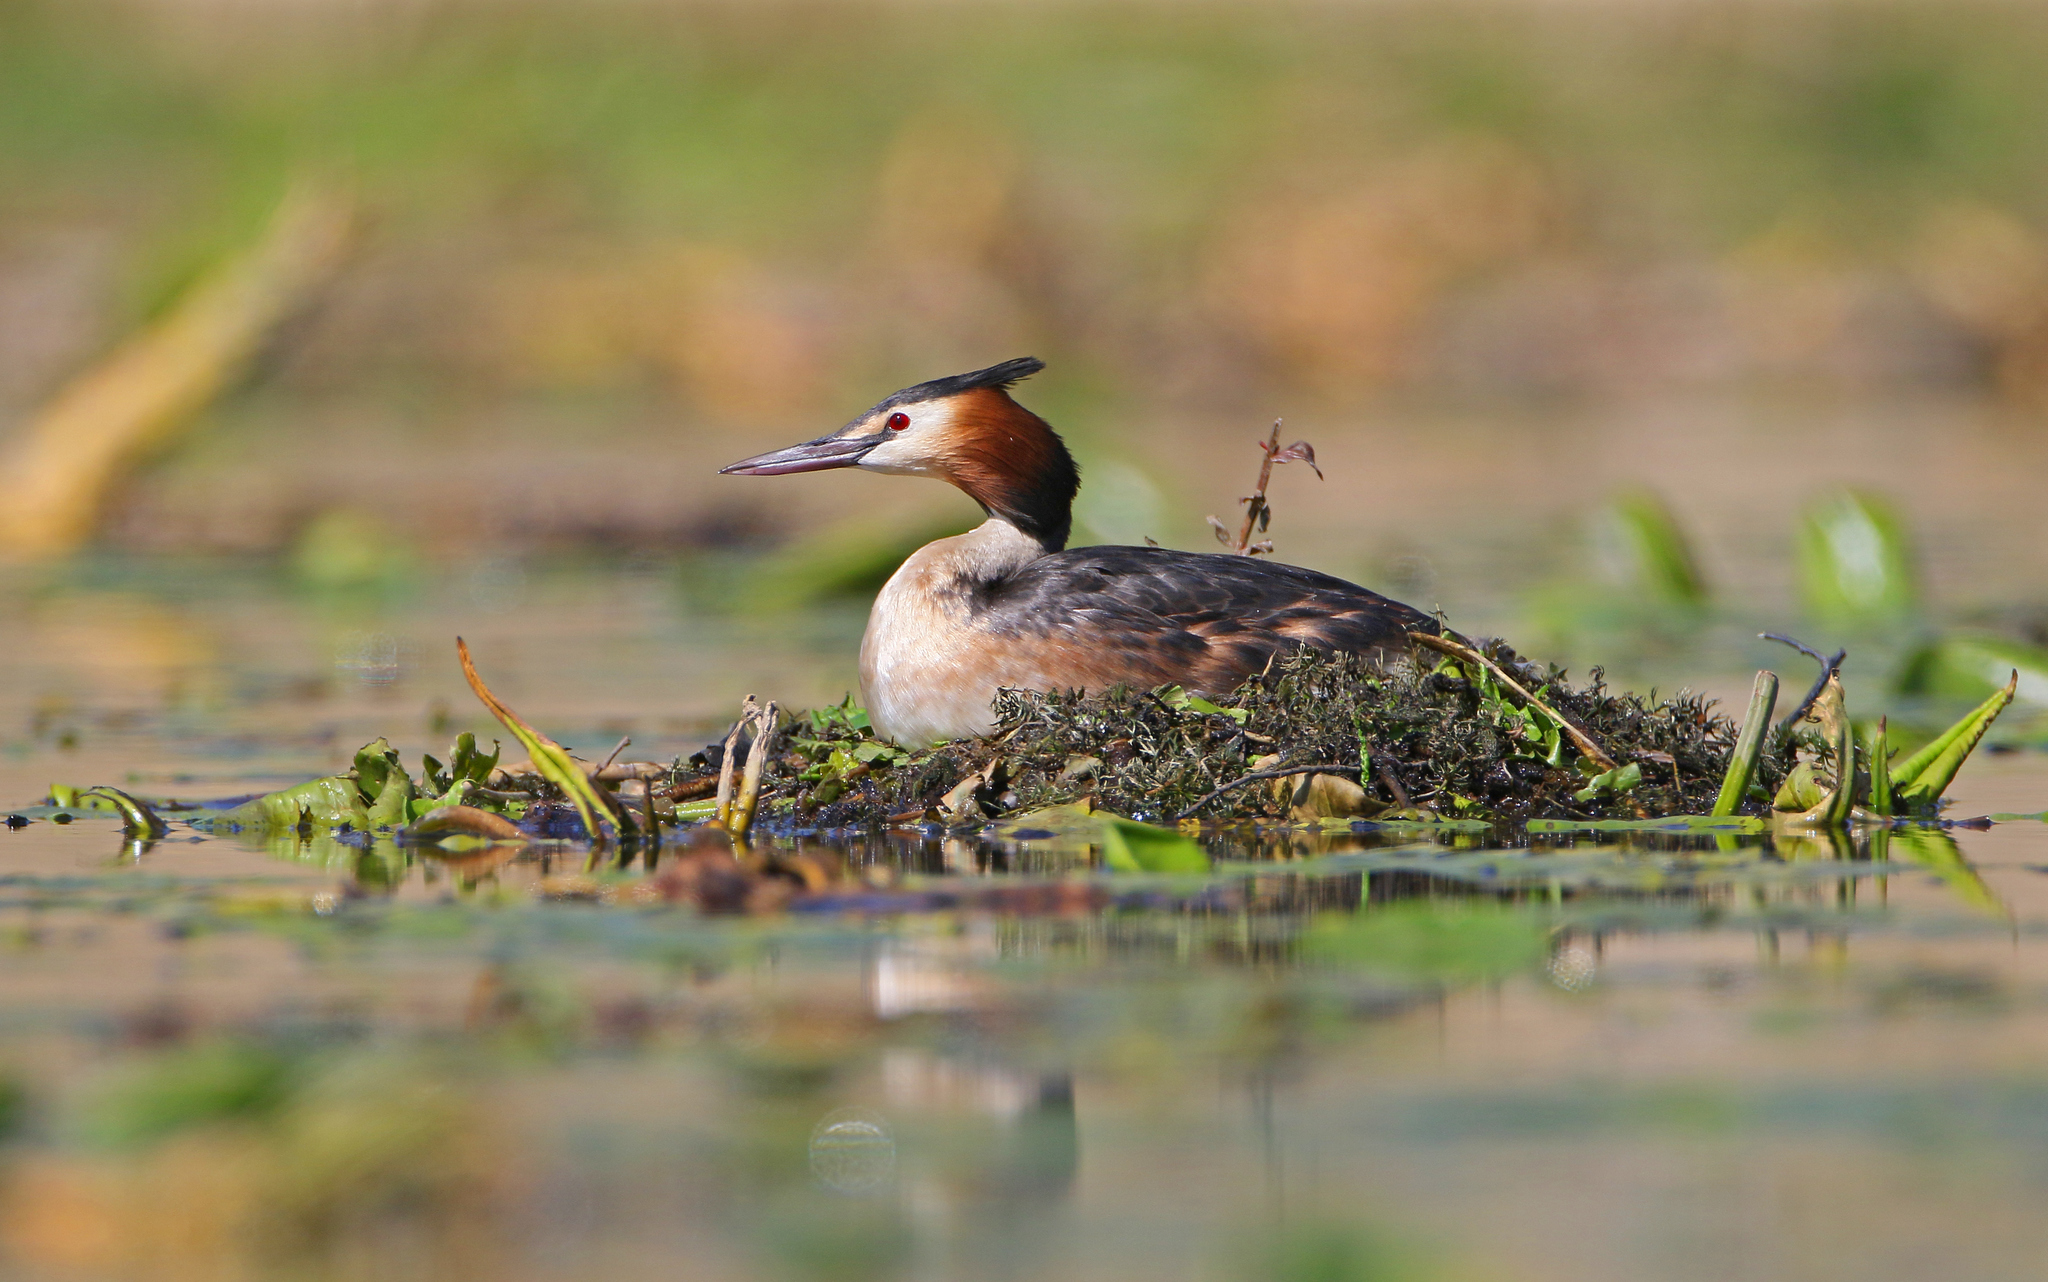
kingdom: Animalia
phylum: Chordata
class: Aves
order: Podicipediformes
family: Podicipedidae
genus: Podiceps
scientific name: Podiceps cristatus
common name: Great crested grebe
